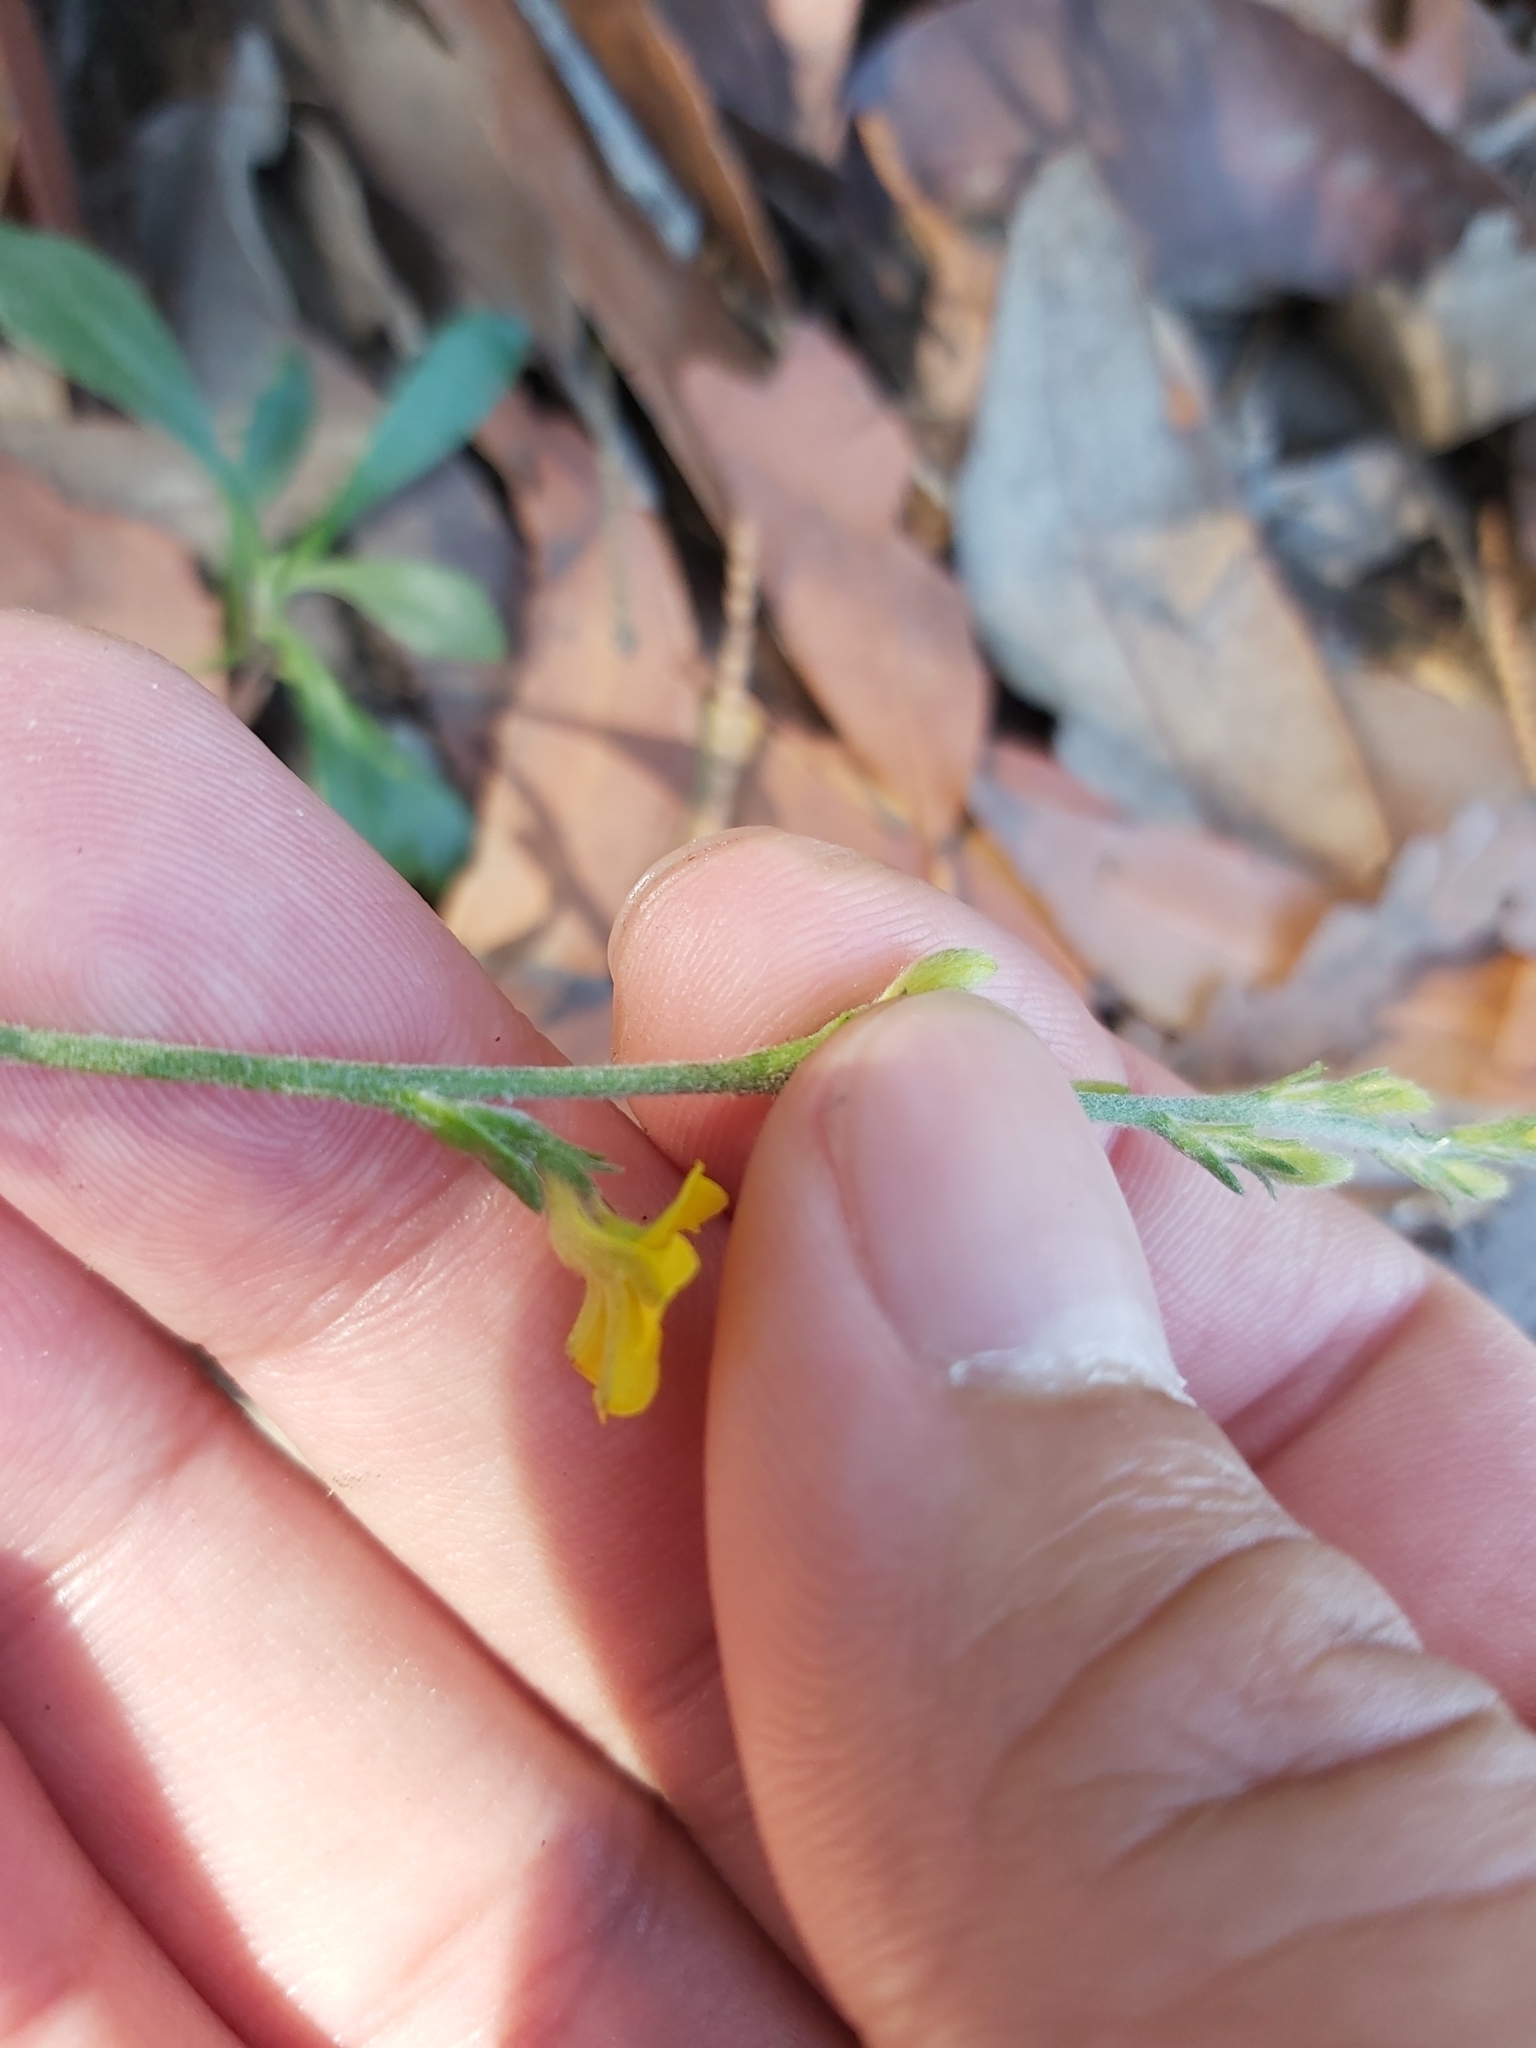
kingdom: Plantae
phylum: Tracheophyta
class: Magnoliopsida
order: Asterales
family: Goodeniaceae
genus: Goodenia
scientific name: Goodenia bellidifolia
